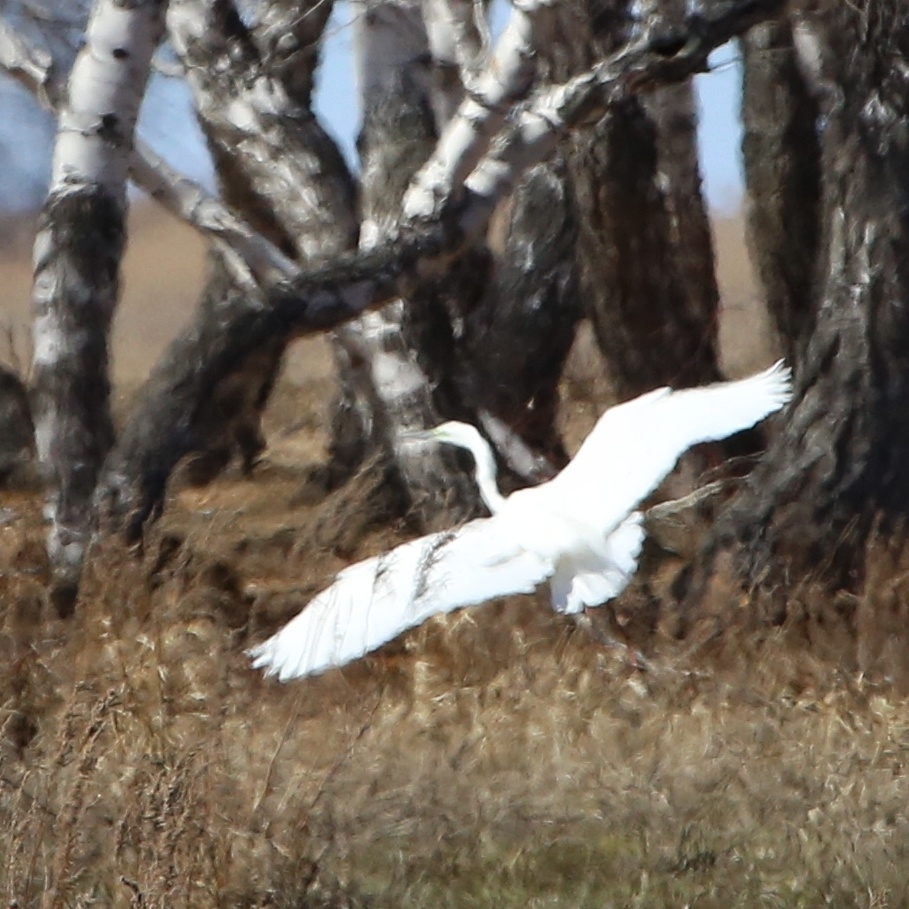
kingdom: Animalia
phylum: Chordata
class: Aves
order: Pelecaniformes
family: Ardeidae
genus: Ardea
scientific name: Ardea alba
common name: Great egret
